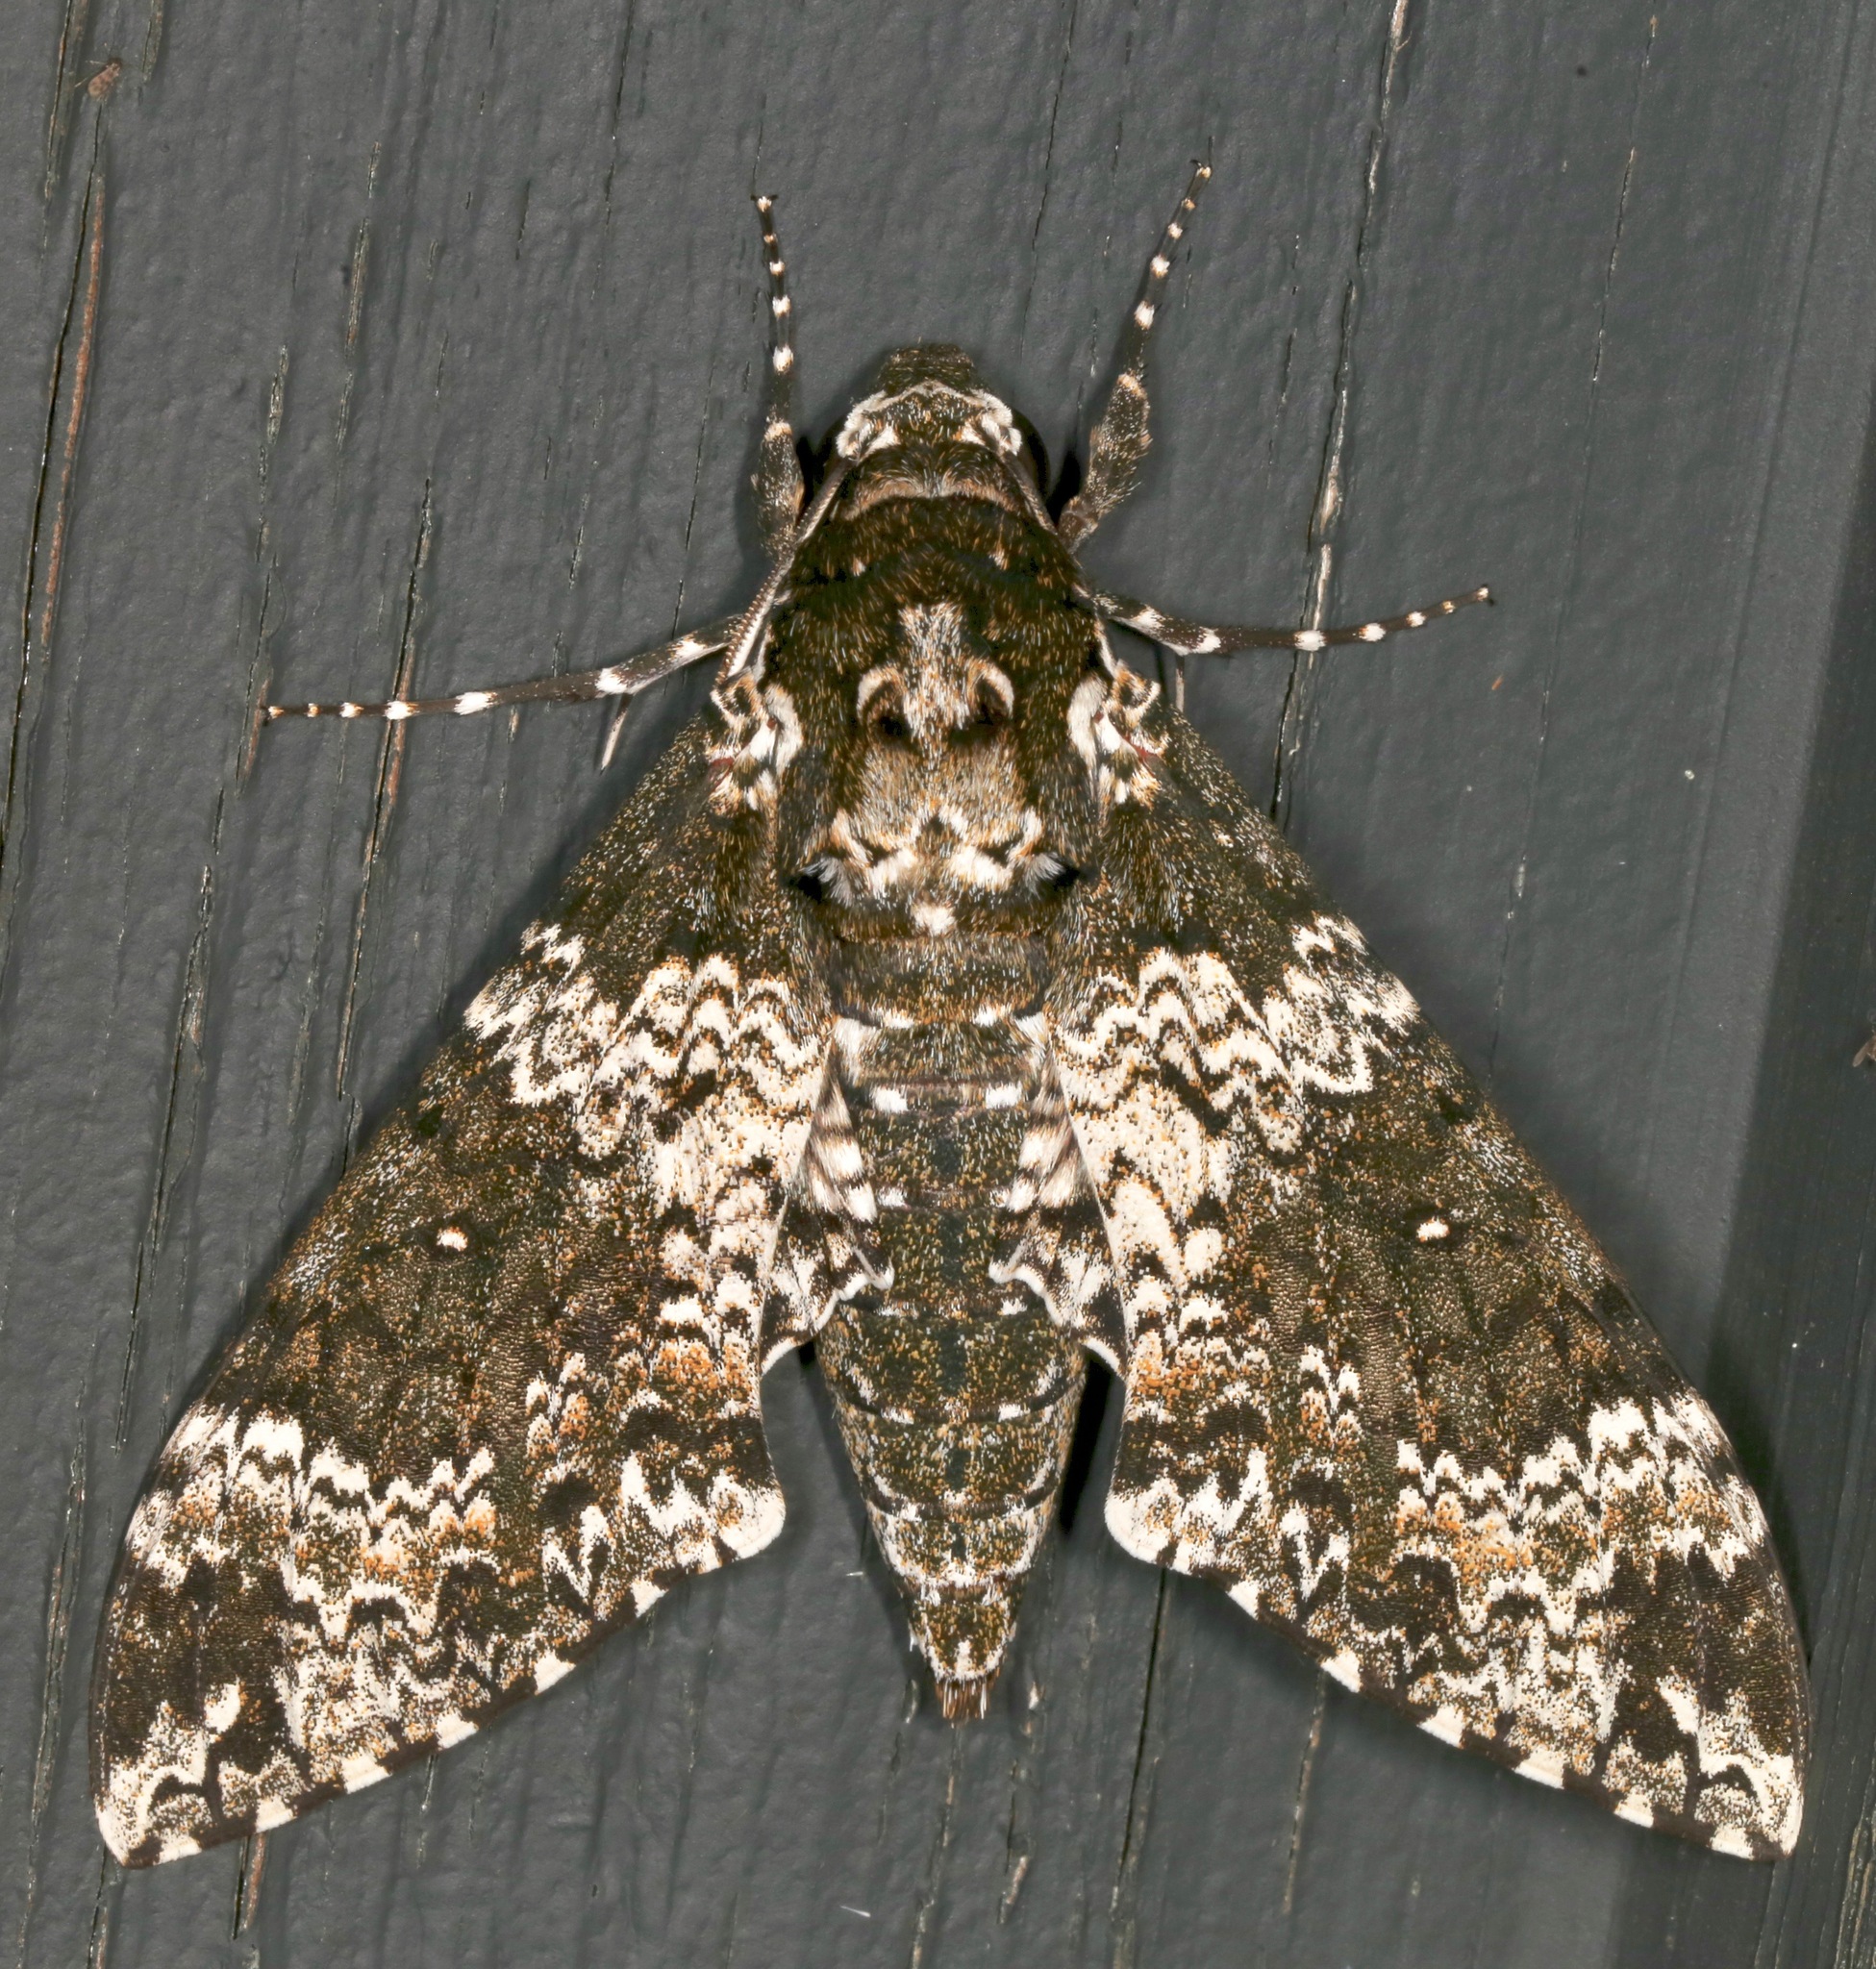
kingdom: Animalia
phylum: Arthropoda
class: Insecta
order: Lepidoptera
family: Sphingidae
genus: Manduca
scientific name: Manduca rustica
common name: Rustic sphinx
